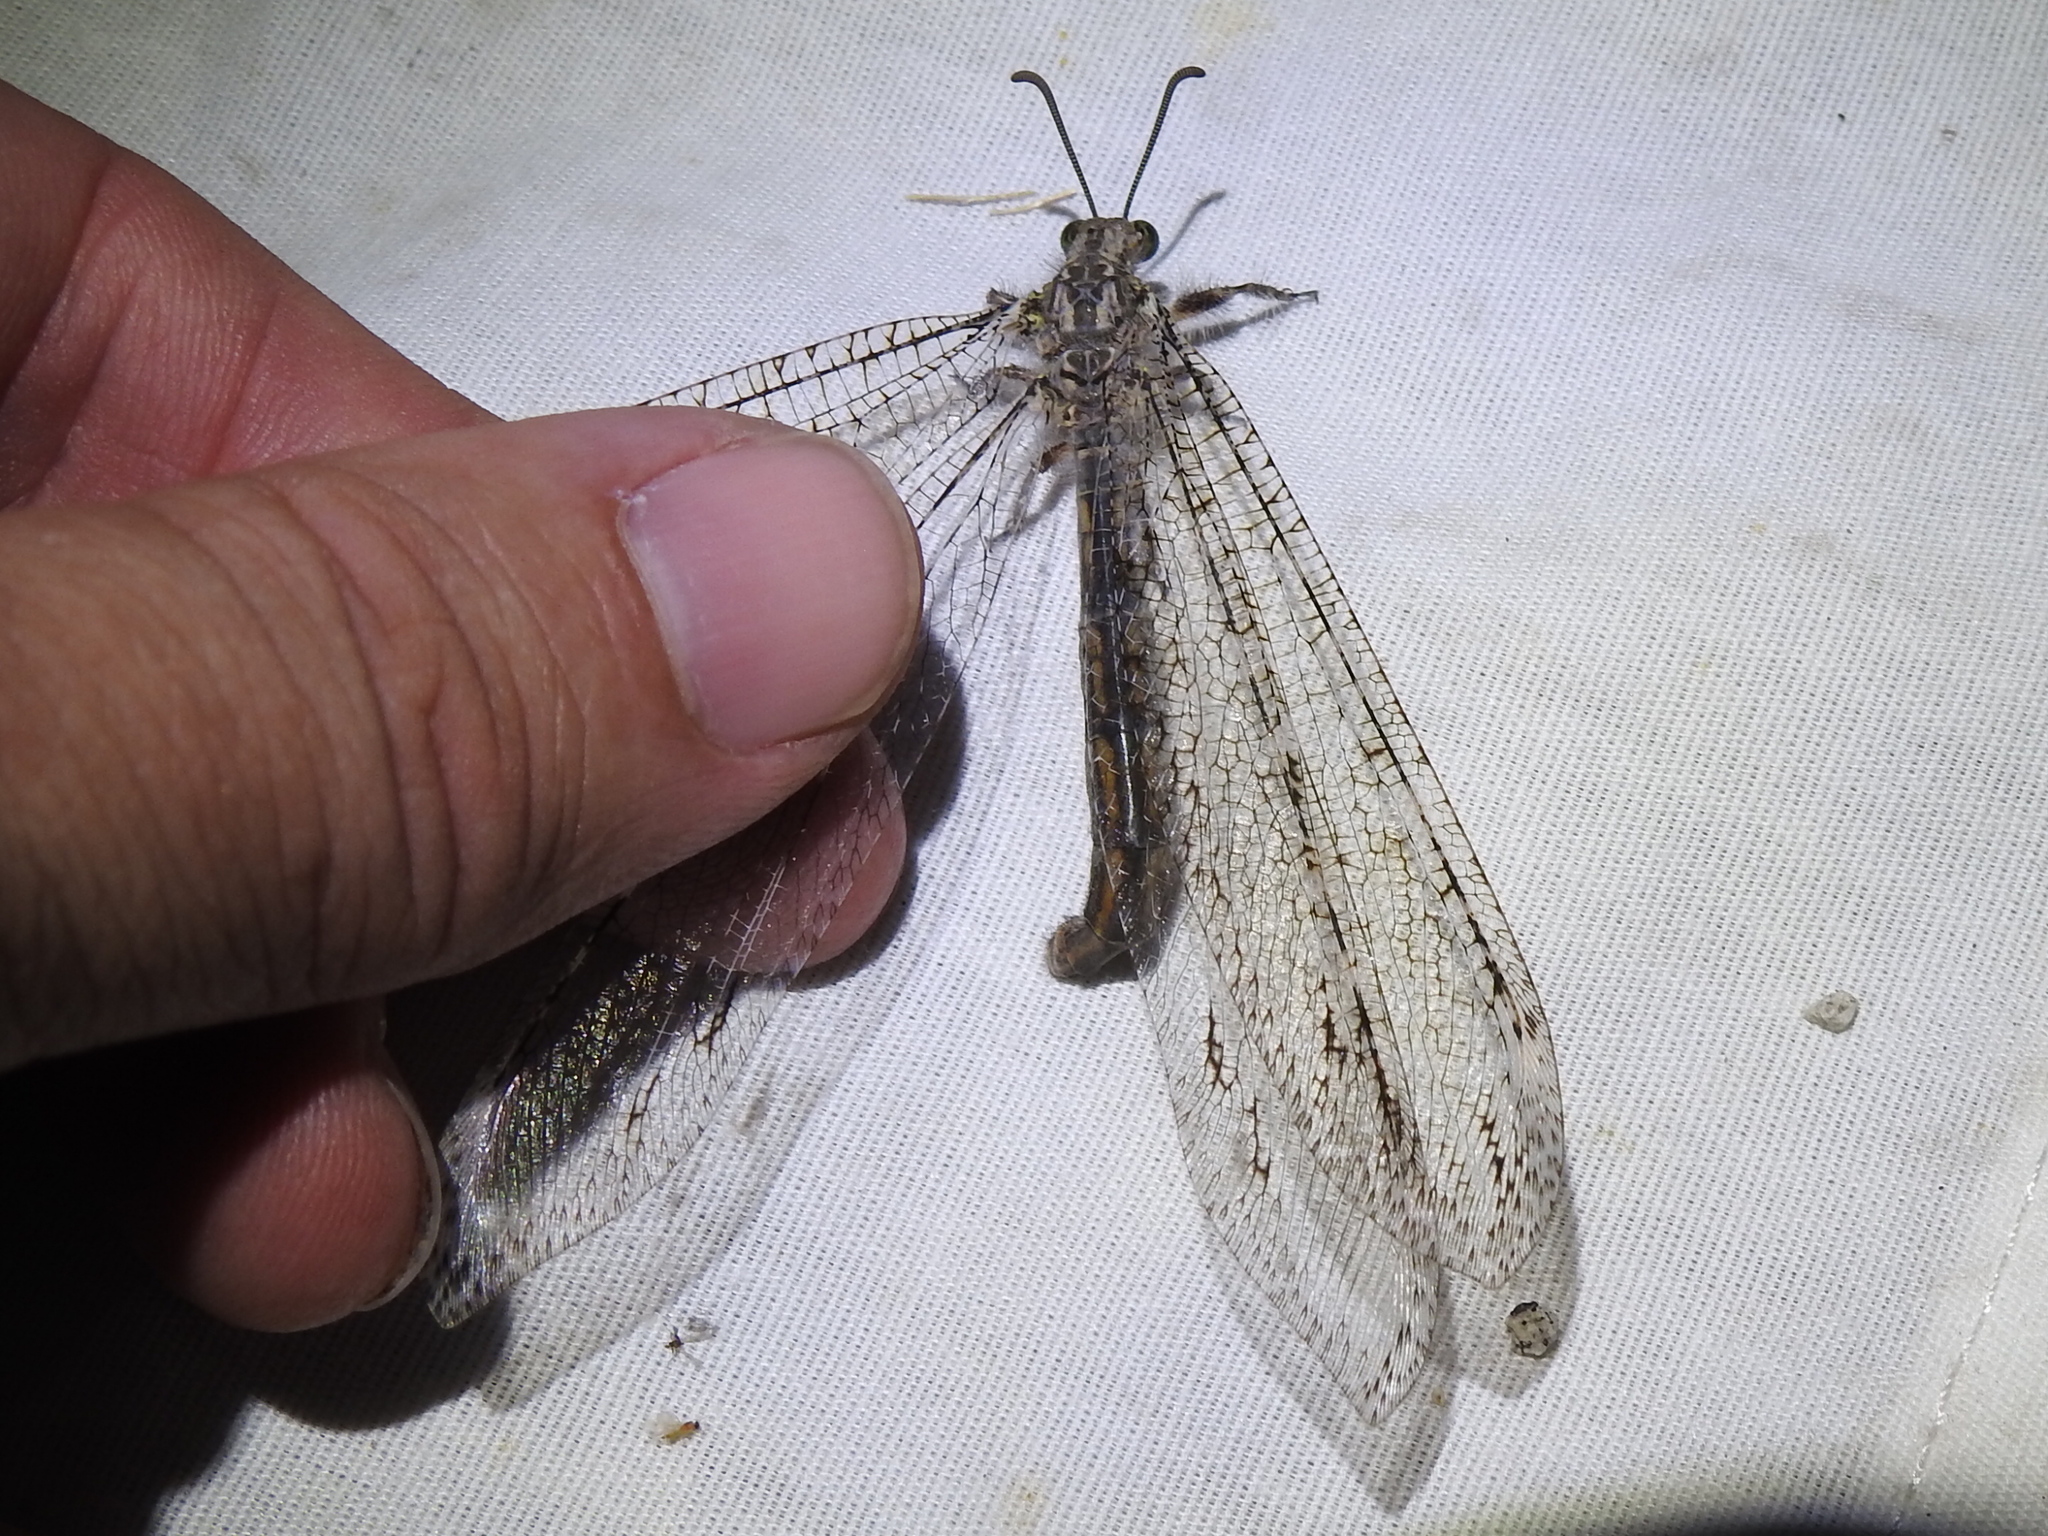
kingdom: Animalia
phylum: Arthropoda
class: Insecta
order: Neuroptera
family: Myrmeleontidae
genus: Vella
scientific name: Vella fallax
